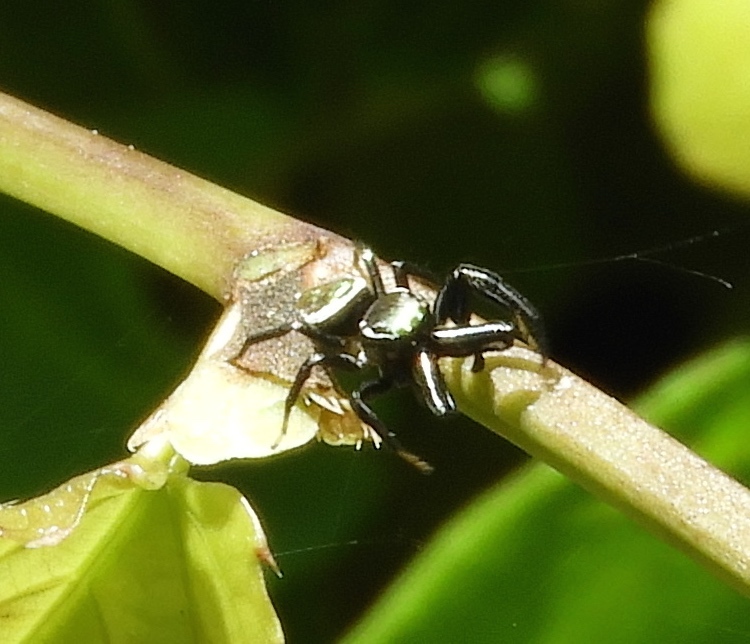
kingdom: Animalia
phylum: Arthropoda
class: Arachnida
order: Araneae
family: Salticidae
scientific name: Salticidae
